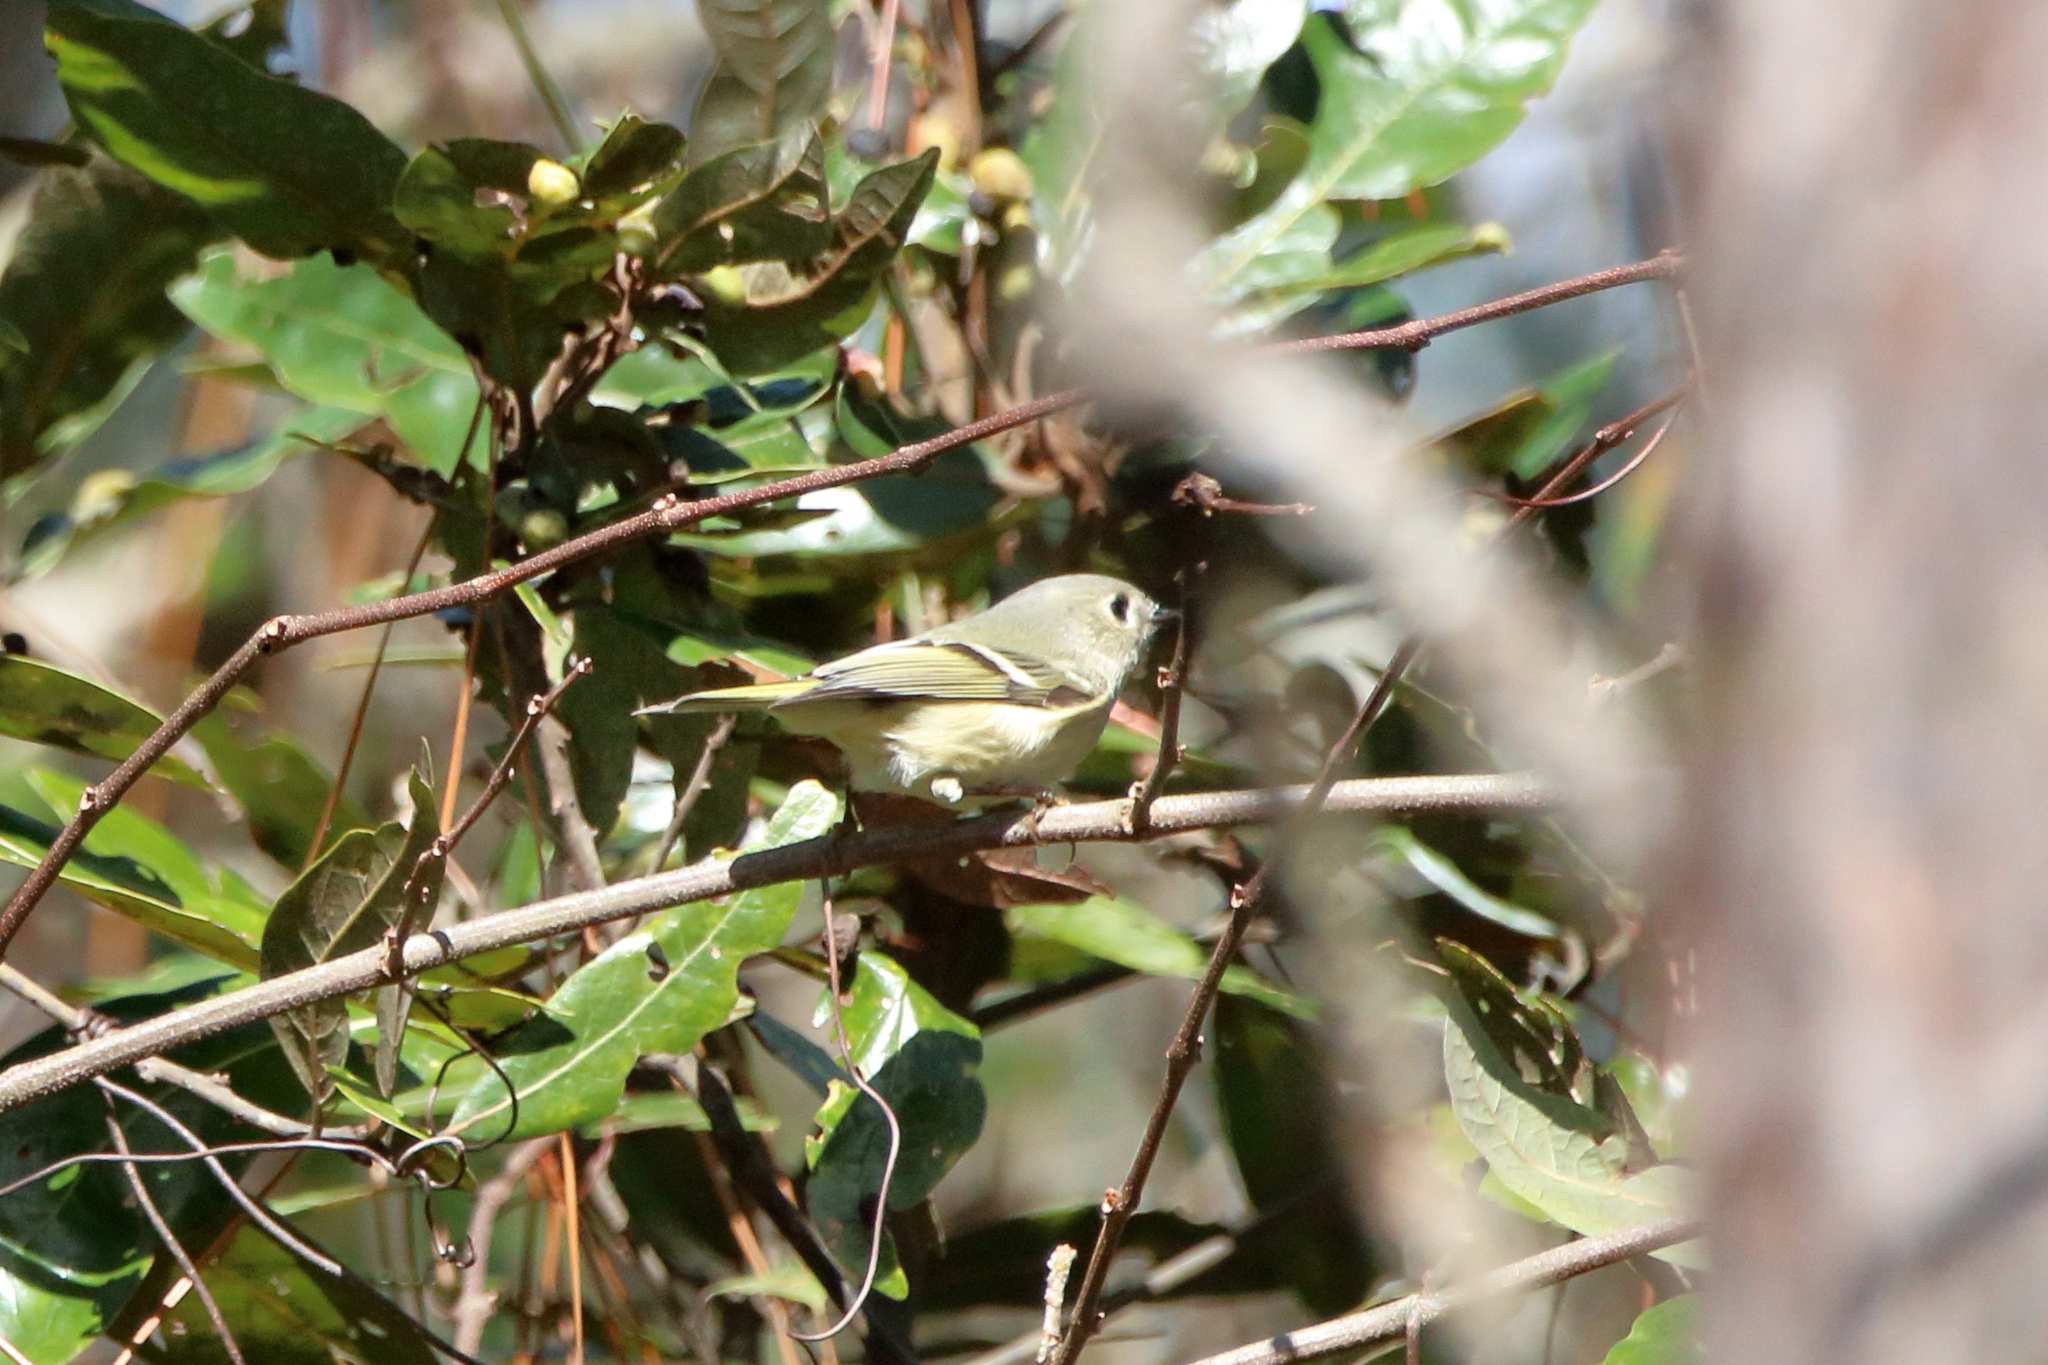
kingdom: Animalia
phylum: Chordata
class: Aves
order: Passeriformes
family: Regulidae
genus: Regulus
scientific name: Regulus calendula
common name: Ruby-crowned kinglet
